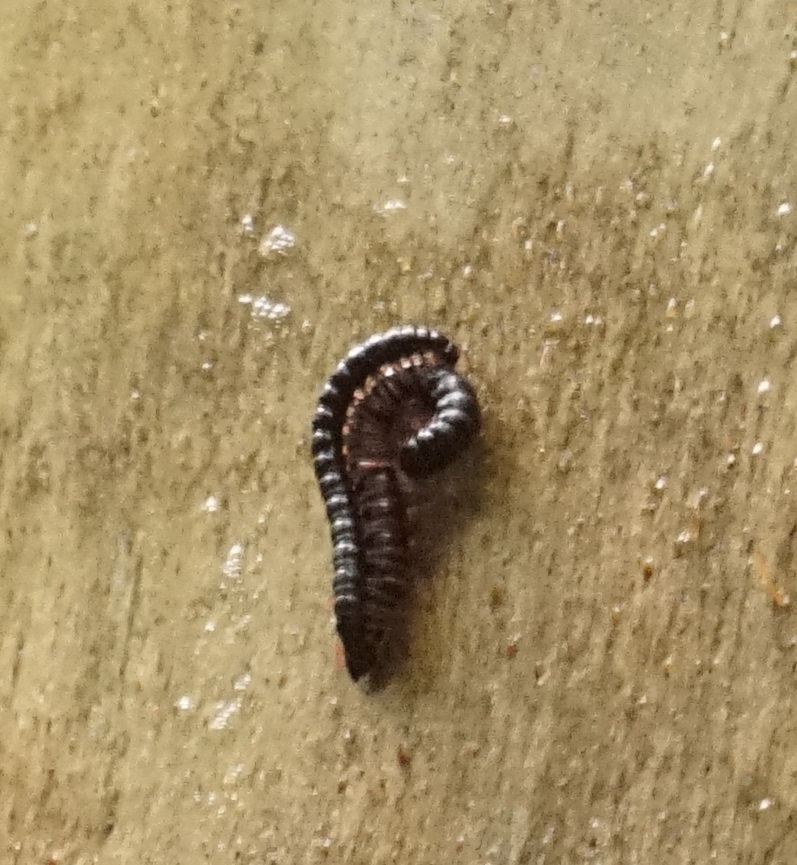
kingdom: Animalia
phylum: Arthropoda
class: Diplopoda
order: Polydesmida
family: Paradoxosomatidae
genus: Heterocladosoma
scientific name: Heterocladosoma
